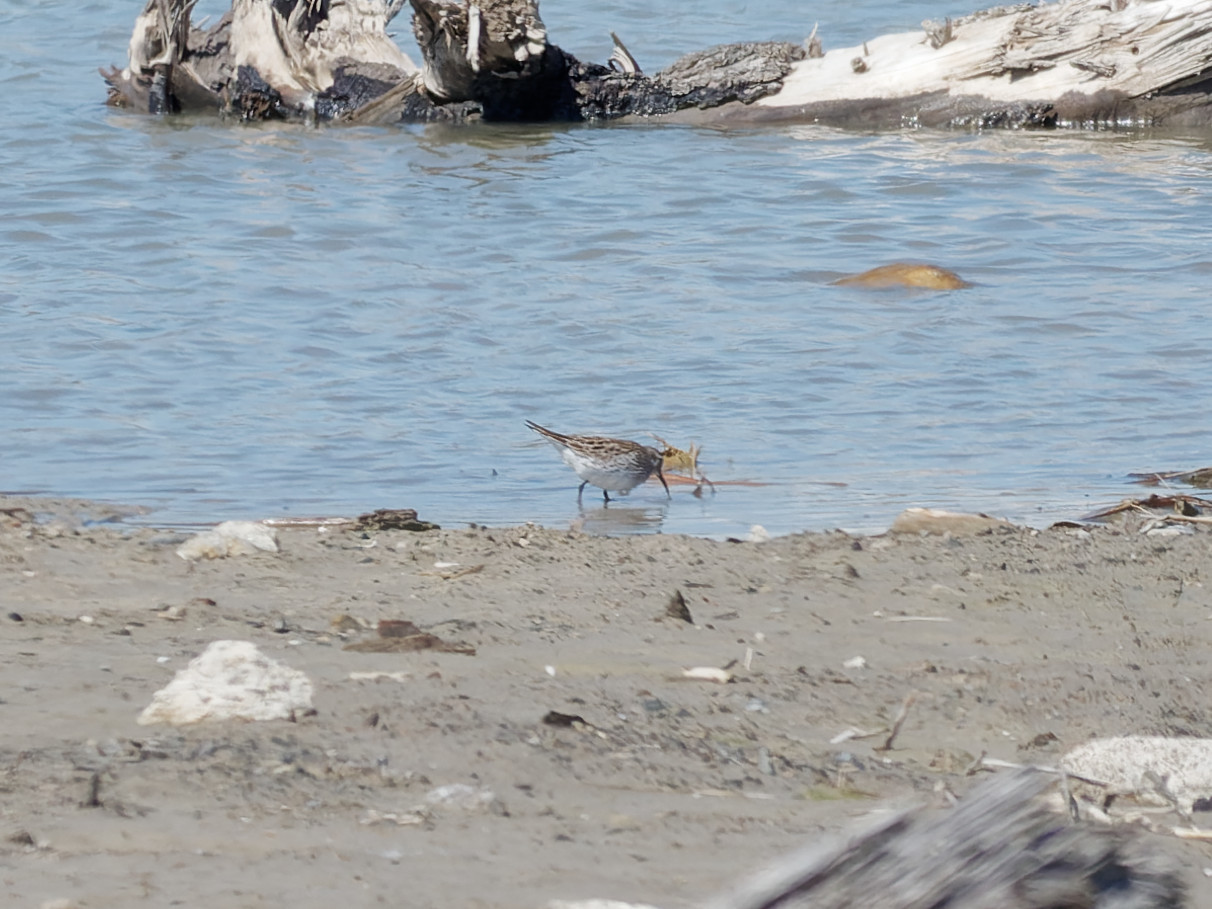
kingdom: Animalia
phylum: Chordata
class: Aves
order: Charadriiformes
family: Scolopacidae
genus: Calidris
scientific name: Calidris fuscicollis
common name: White-rumped sandpiper
